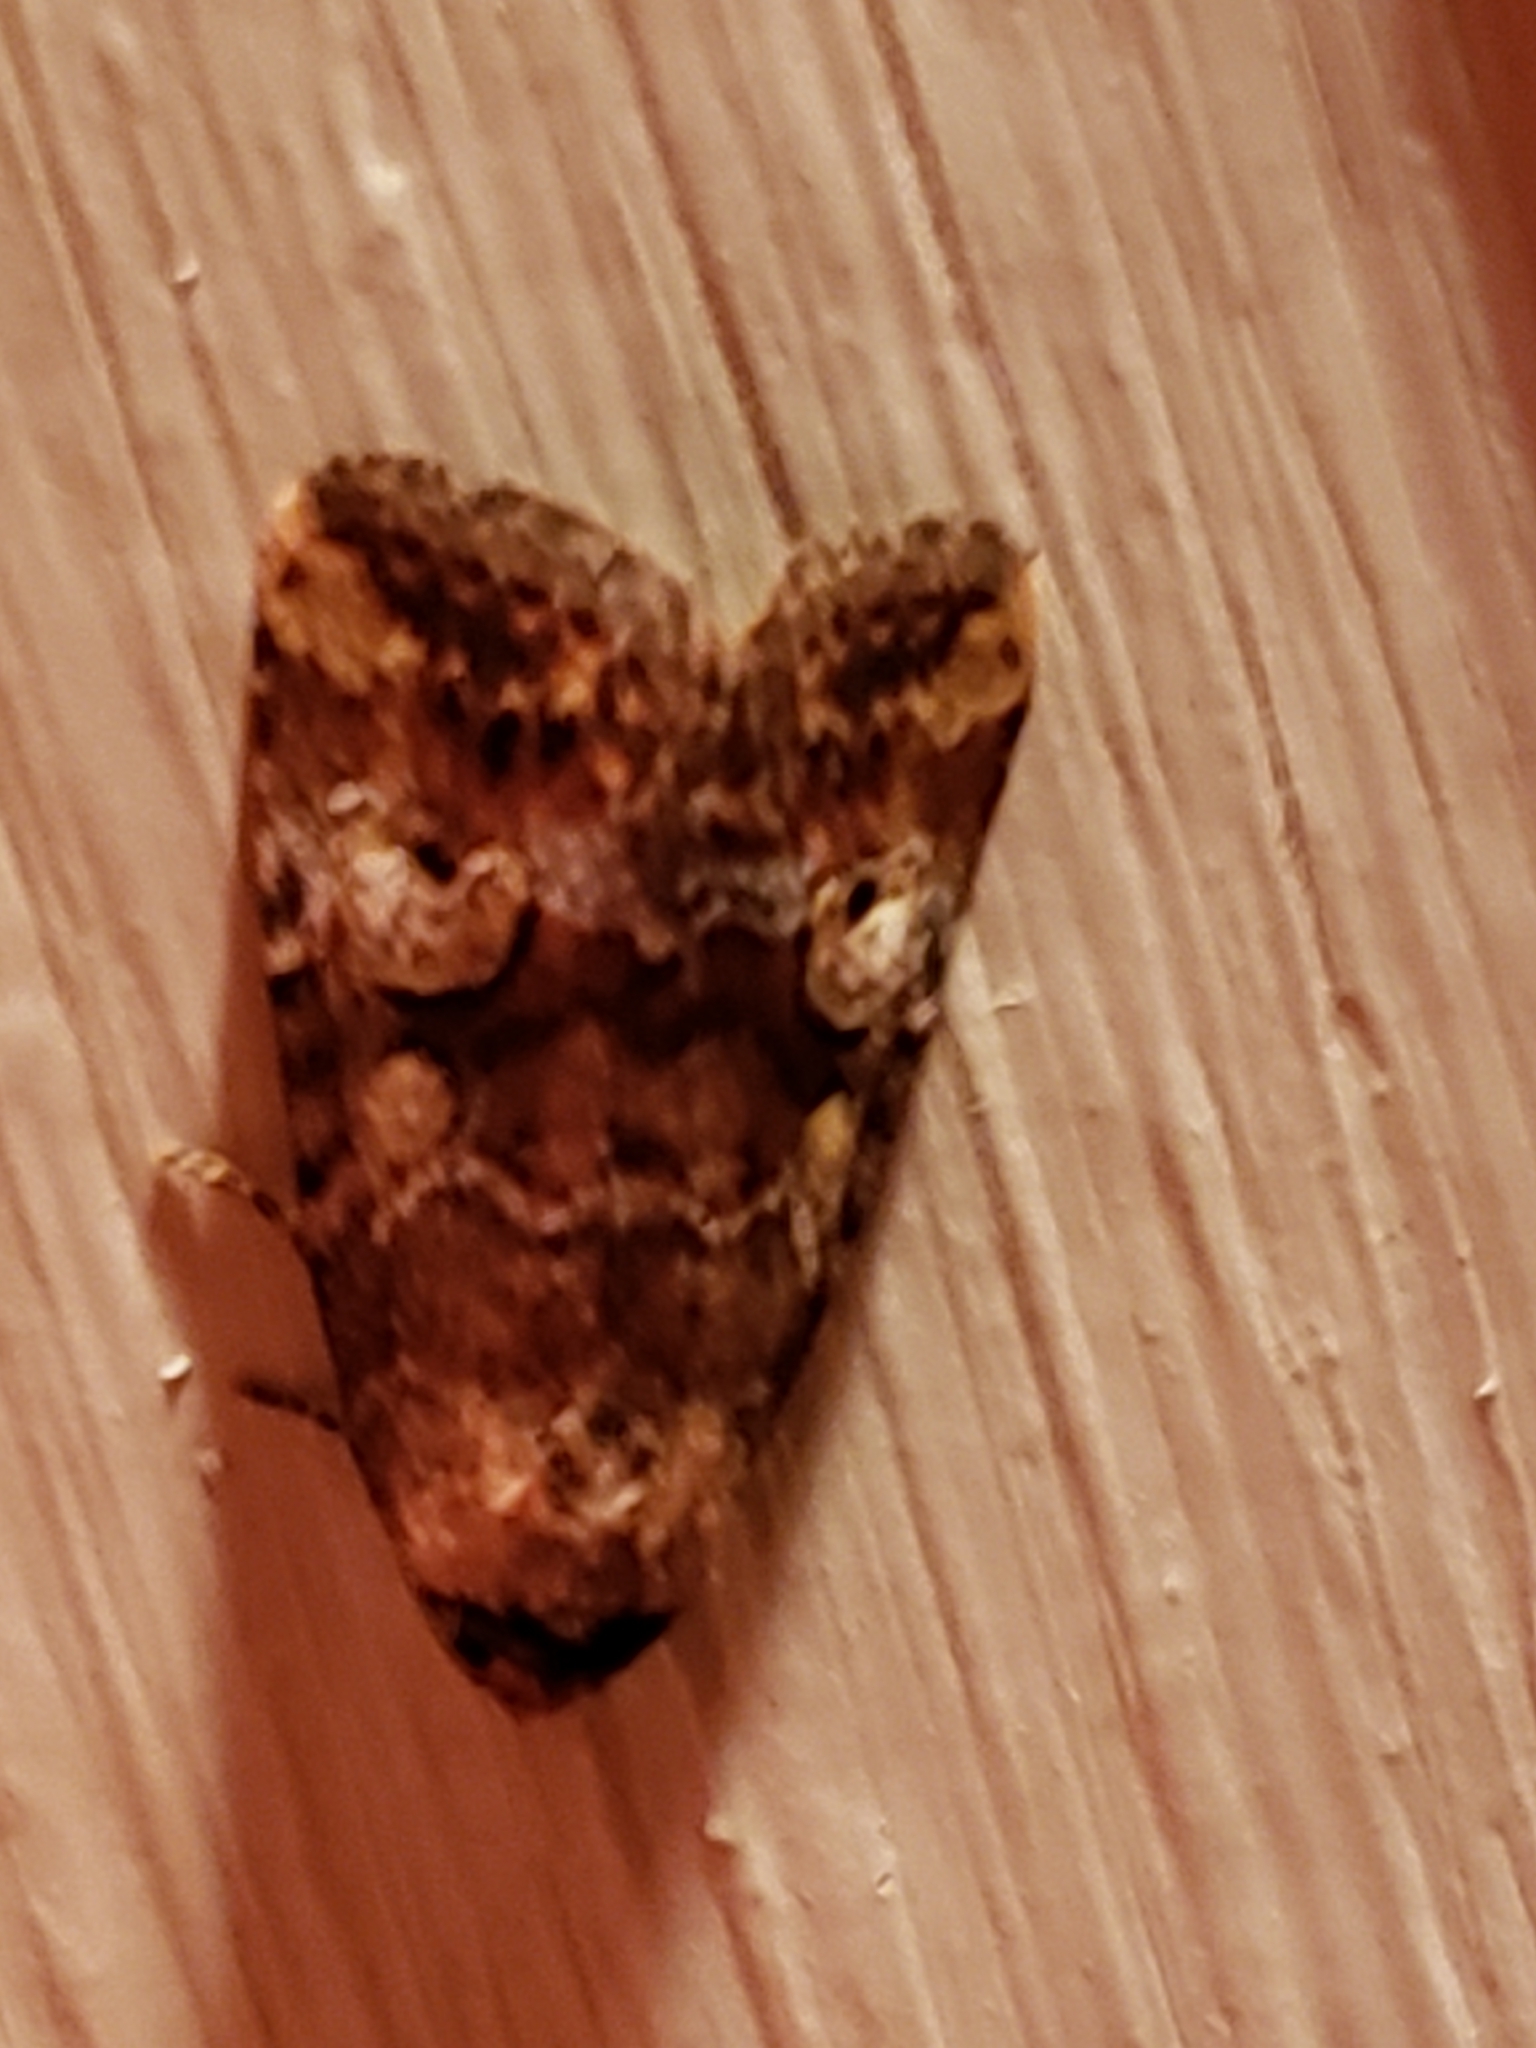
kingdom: Animalia
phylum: Arthropoda
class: Insecta
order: Lepidoptera
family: Noctuidae
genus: Elaphria
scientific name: Elaphria alapallida
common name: Pale-winged midget
